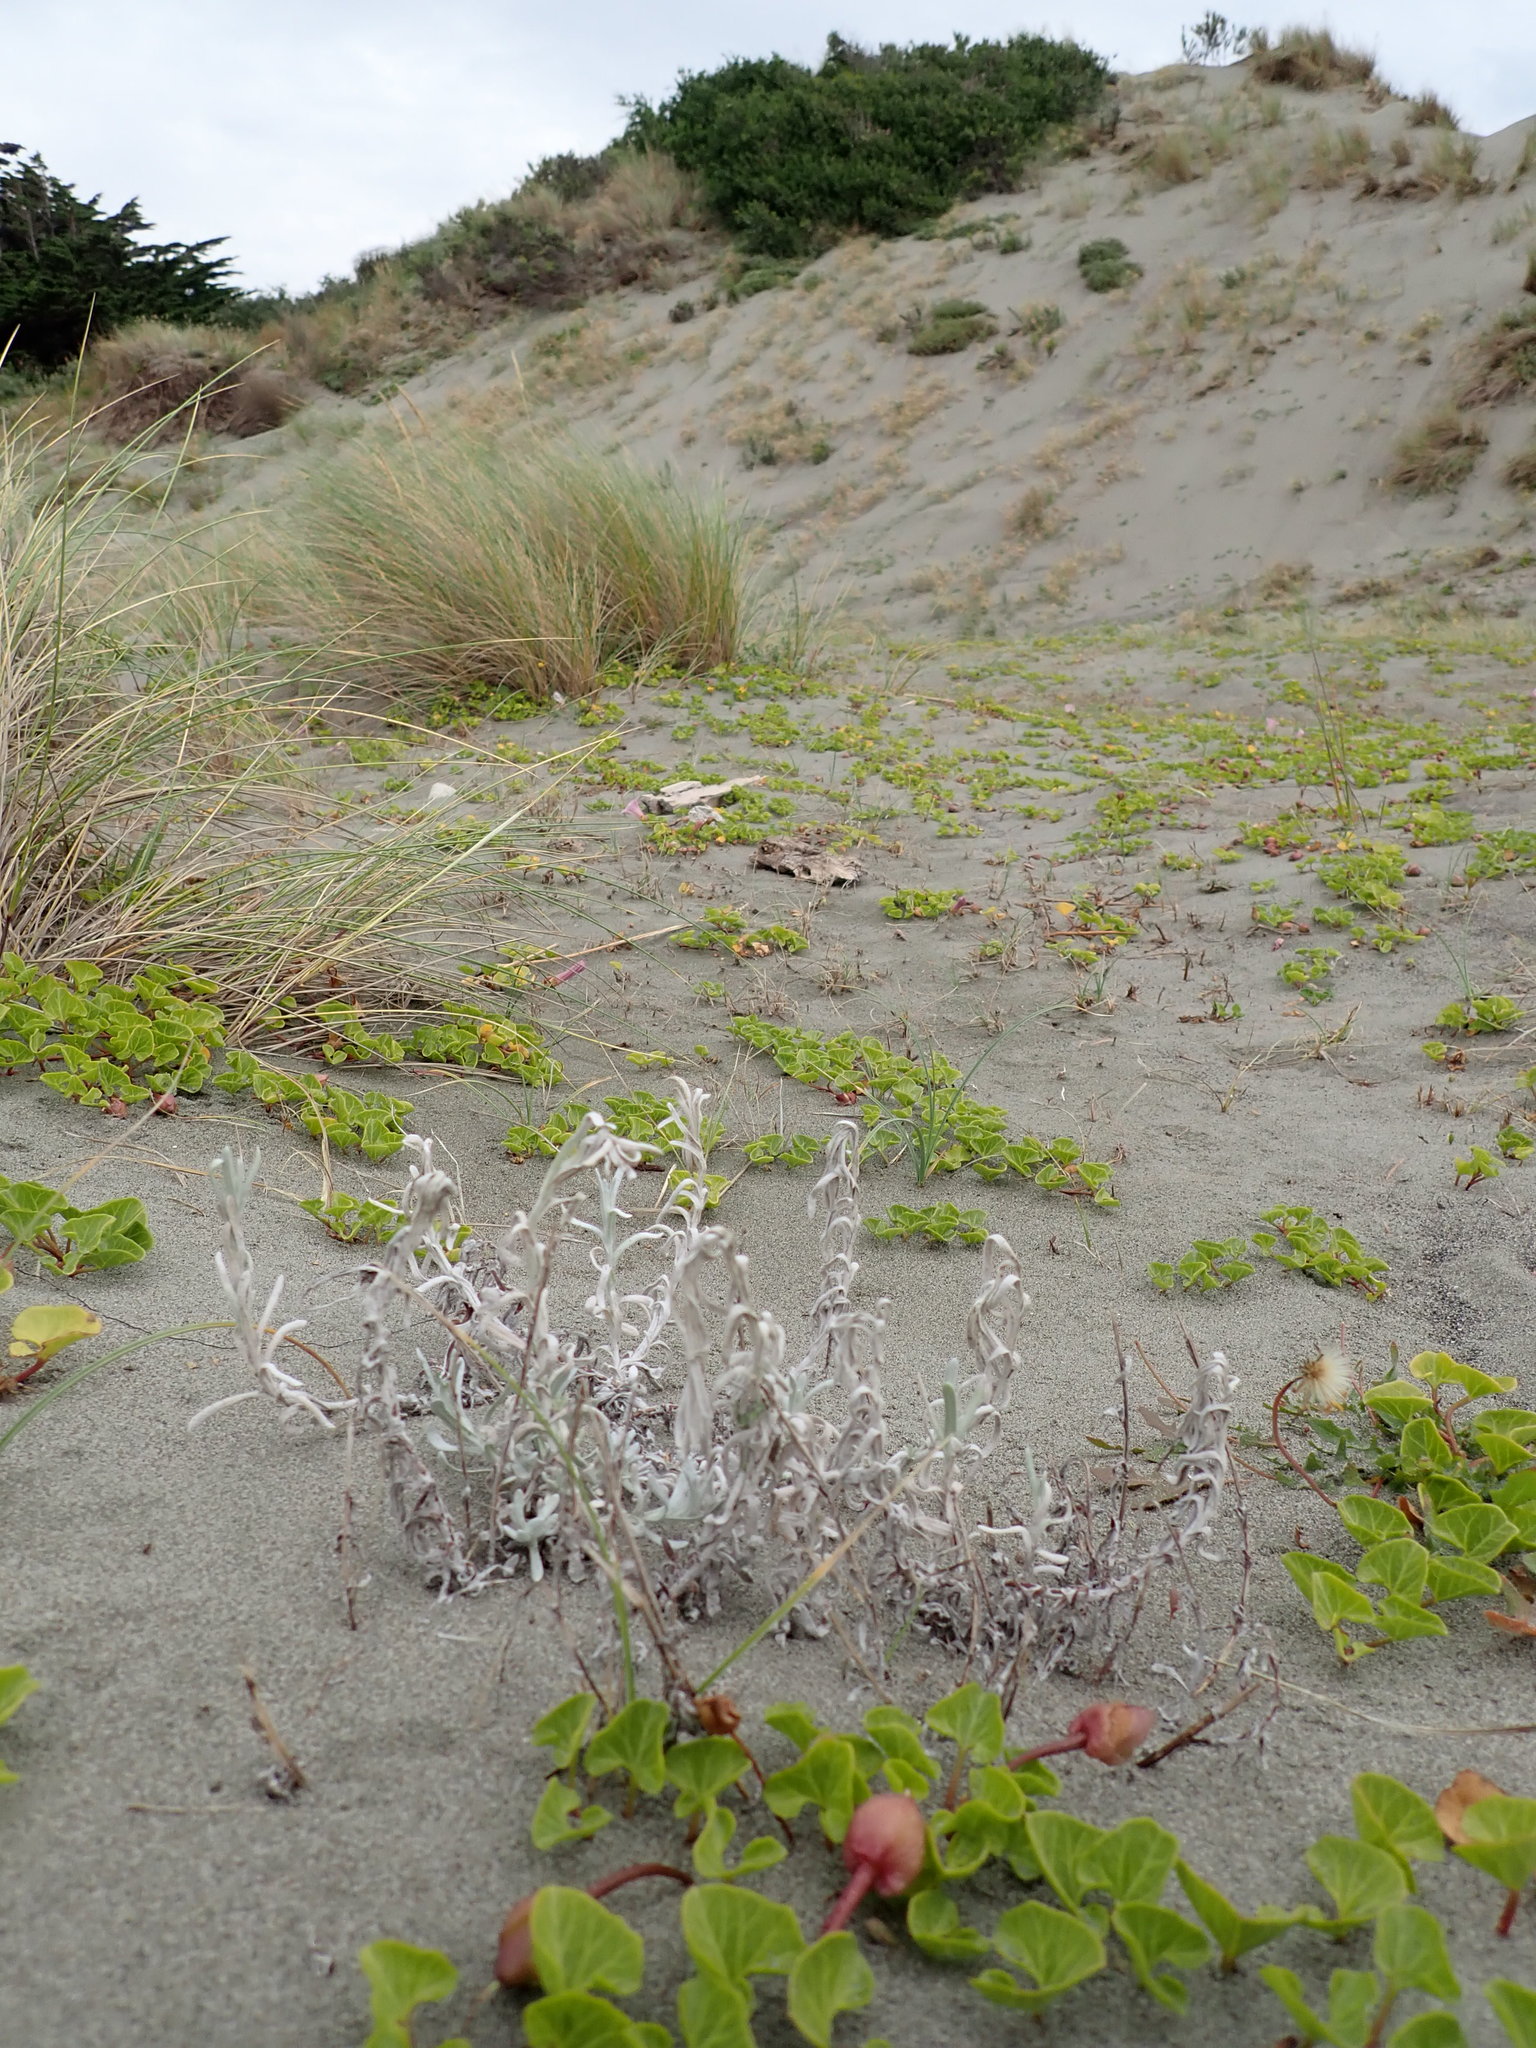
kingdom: Plantae
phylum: Tracheophyta
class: Magnoliopsida
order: Asterales
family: Asteraceae
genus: Helichrysum
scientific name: Helichrysum luteoalbum
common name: Daisy
